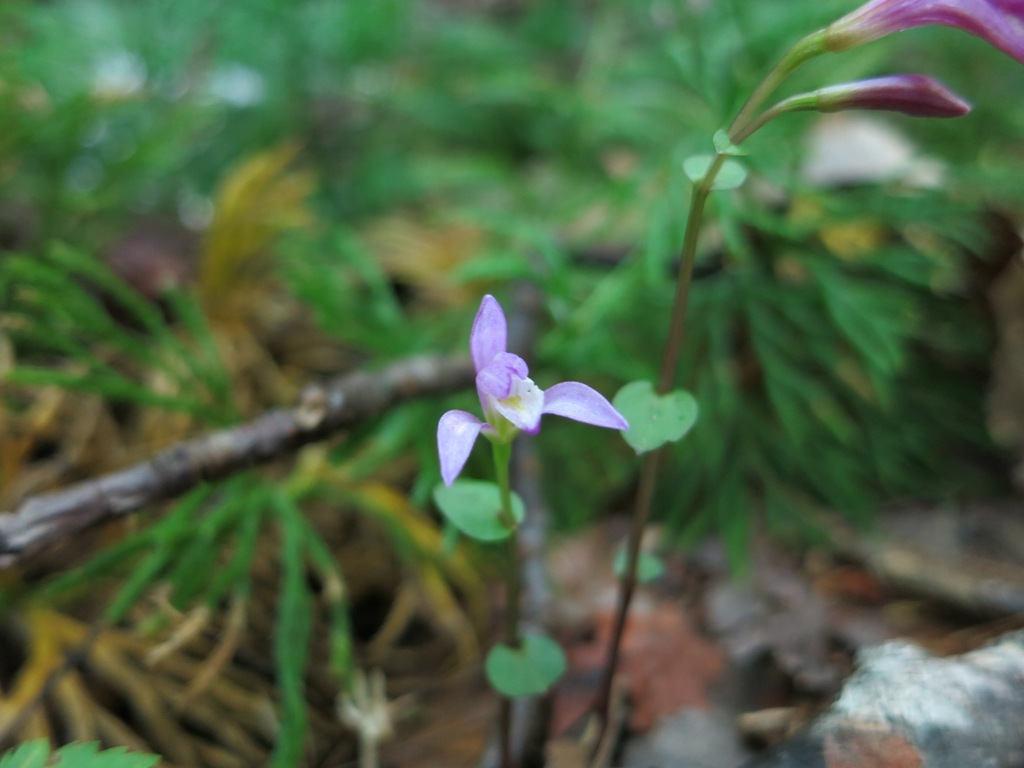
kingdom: Plantae
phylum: Tracheophyta
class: Liliopsida
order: Asparagales
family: Orchidaceae
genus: Triphora
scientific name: Triphora trianthophoros
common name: Three birds orchid
